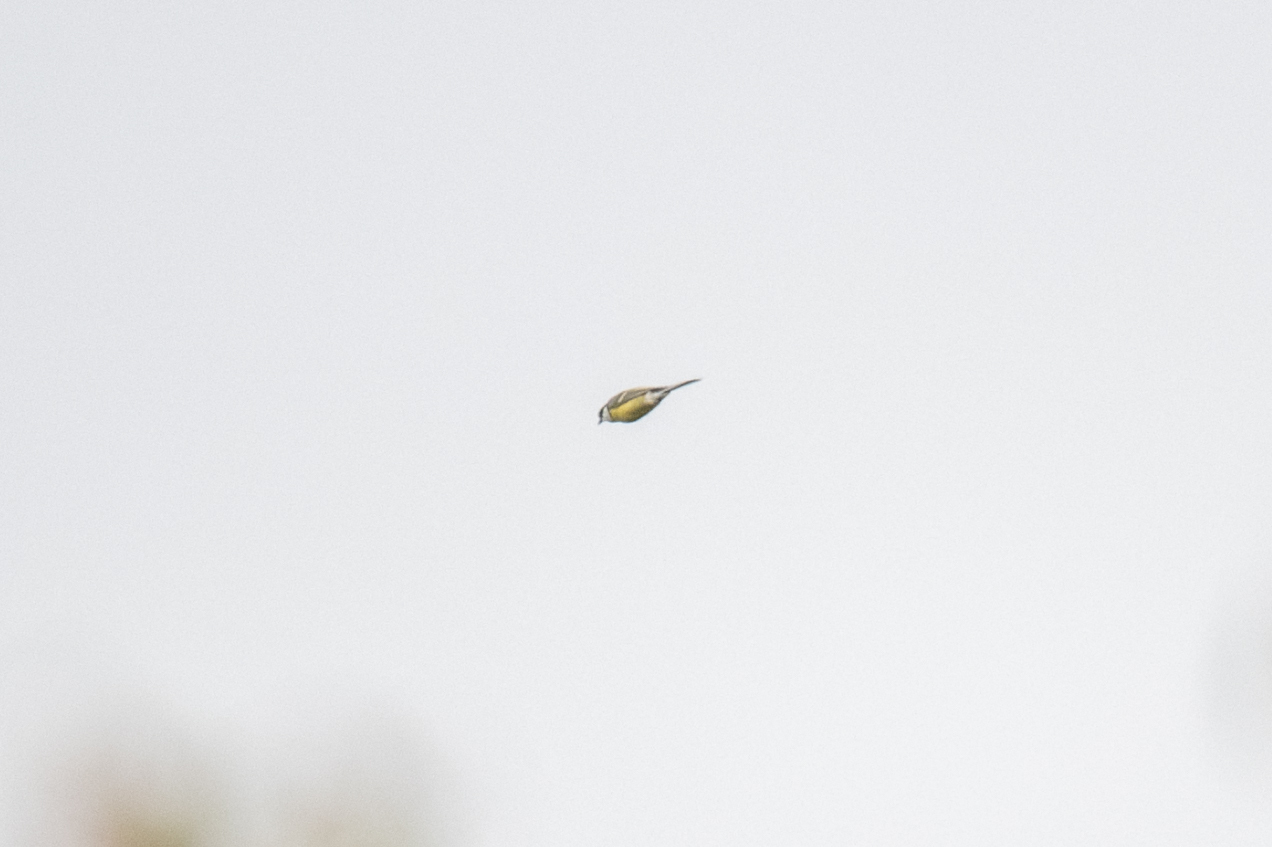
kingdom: Animalia
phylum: Chordata
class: Aves
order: Passeriformes
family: Paridae
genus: Parus
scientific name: Parus major
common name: Great tit
